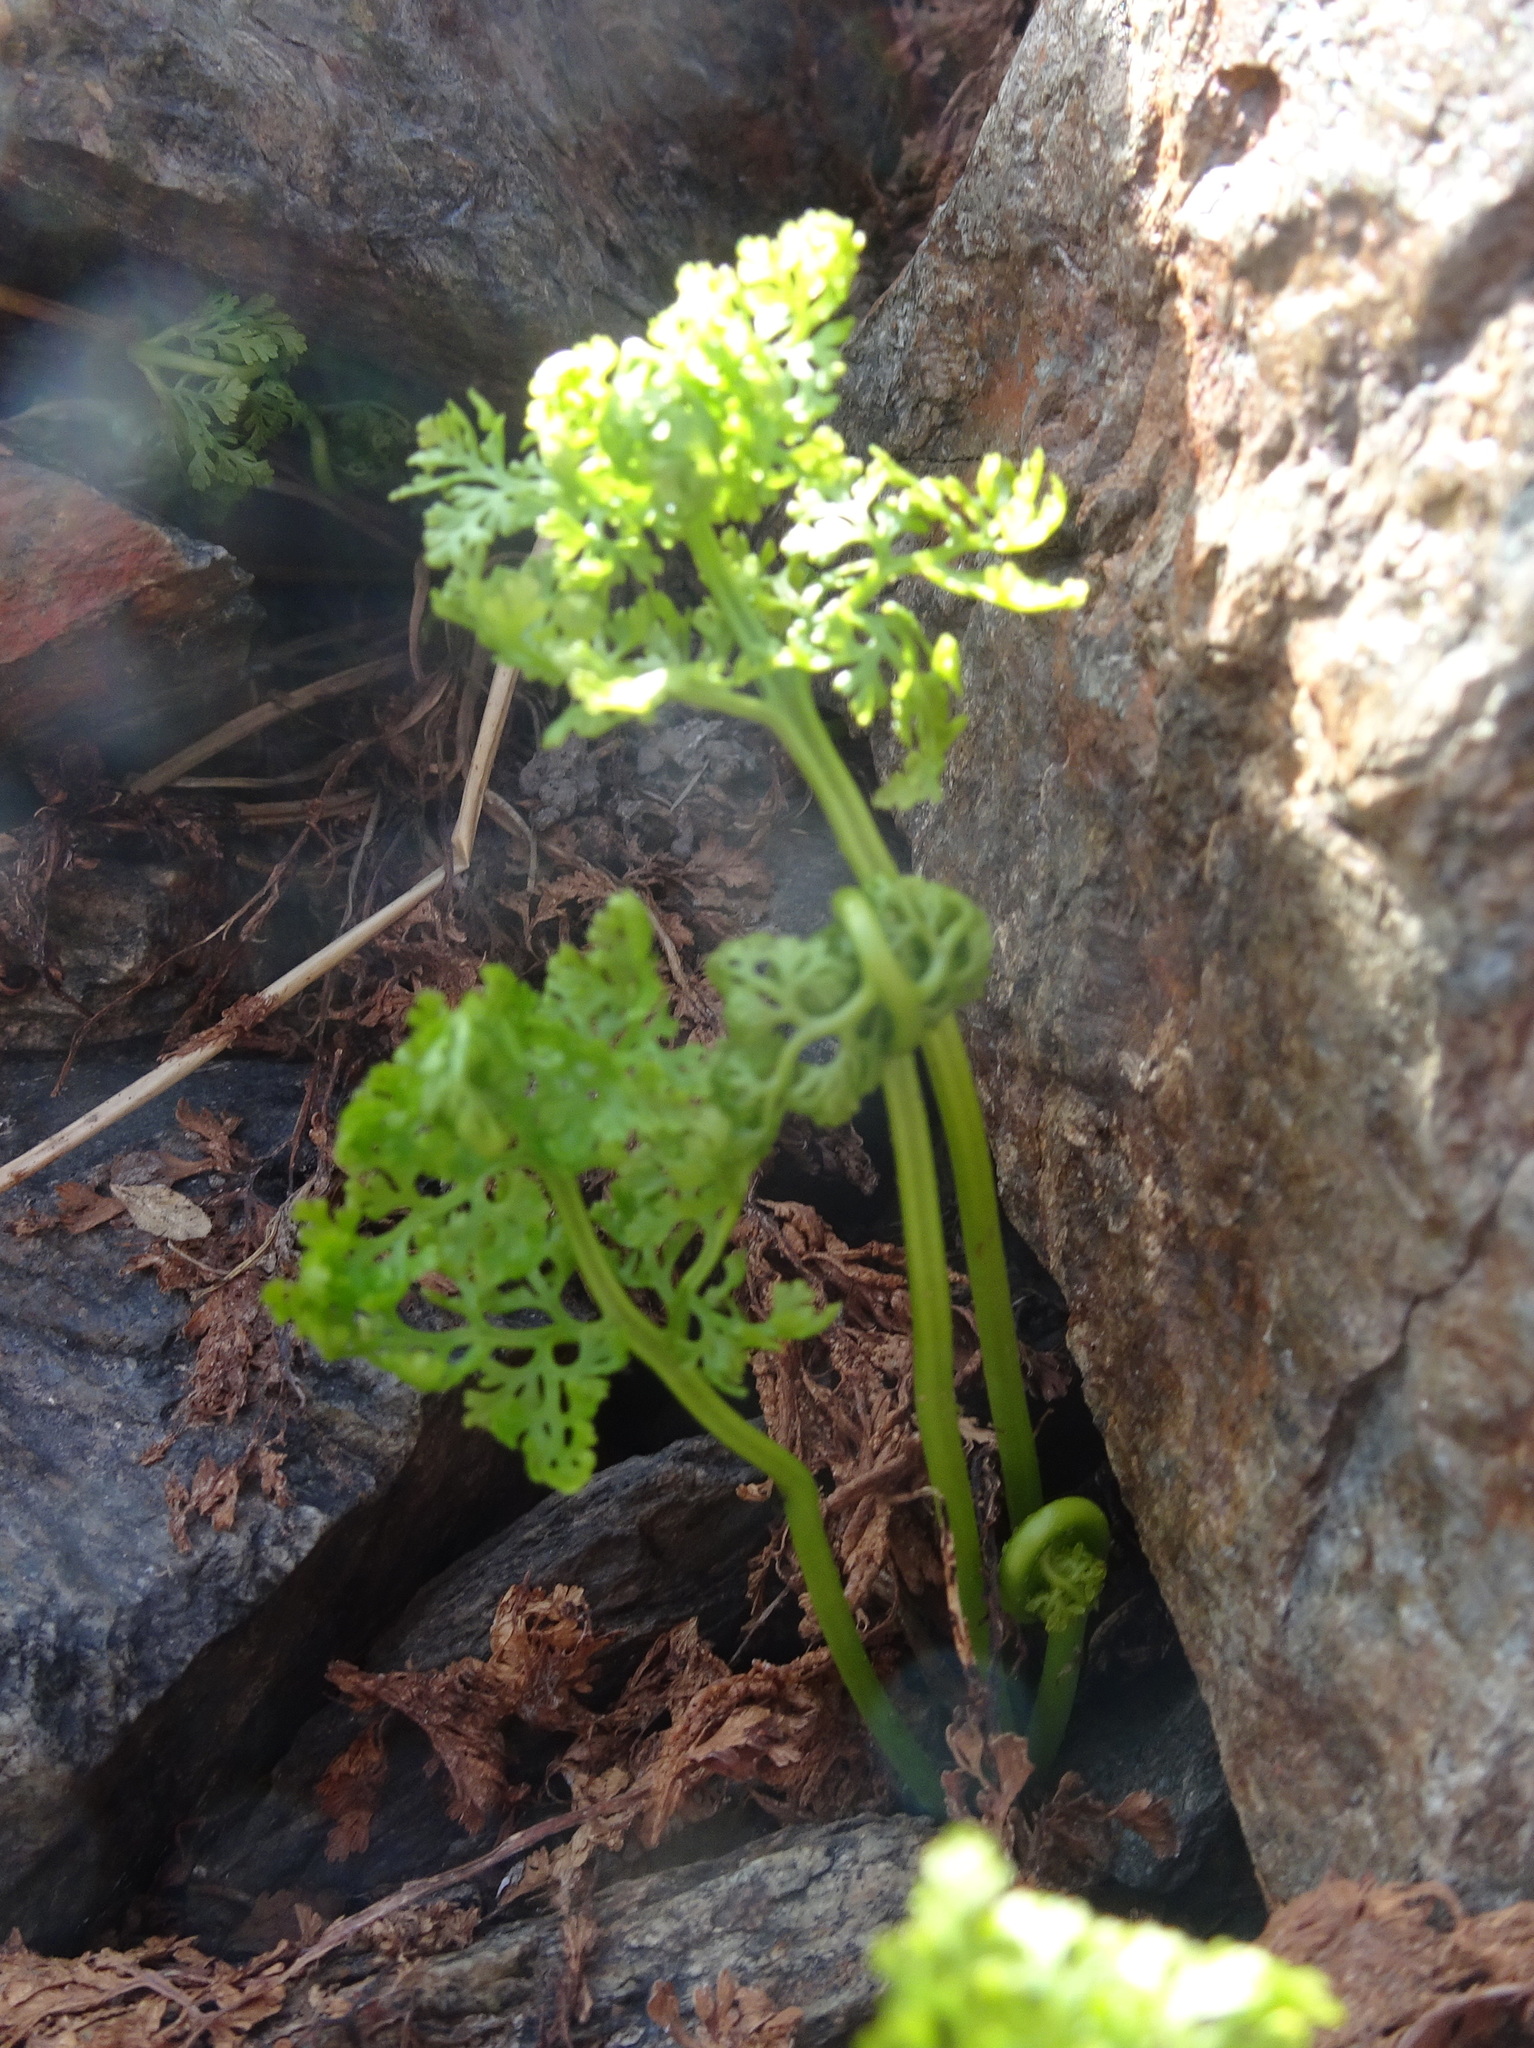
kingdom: Plantae
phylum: Tracheophyta
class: Polypodiopsida
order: Polypodiales
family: Pteridaceae
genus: Cryptogramma
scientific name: Cryptogramma crispa
